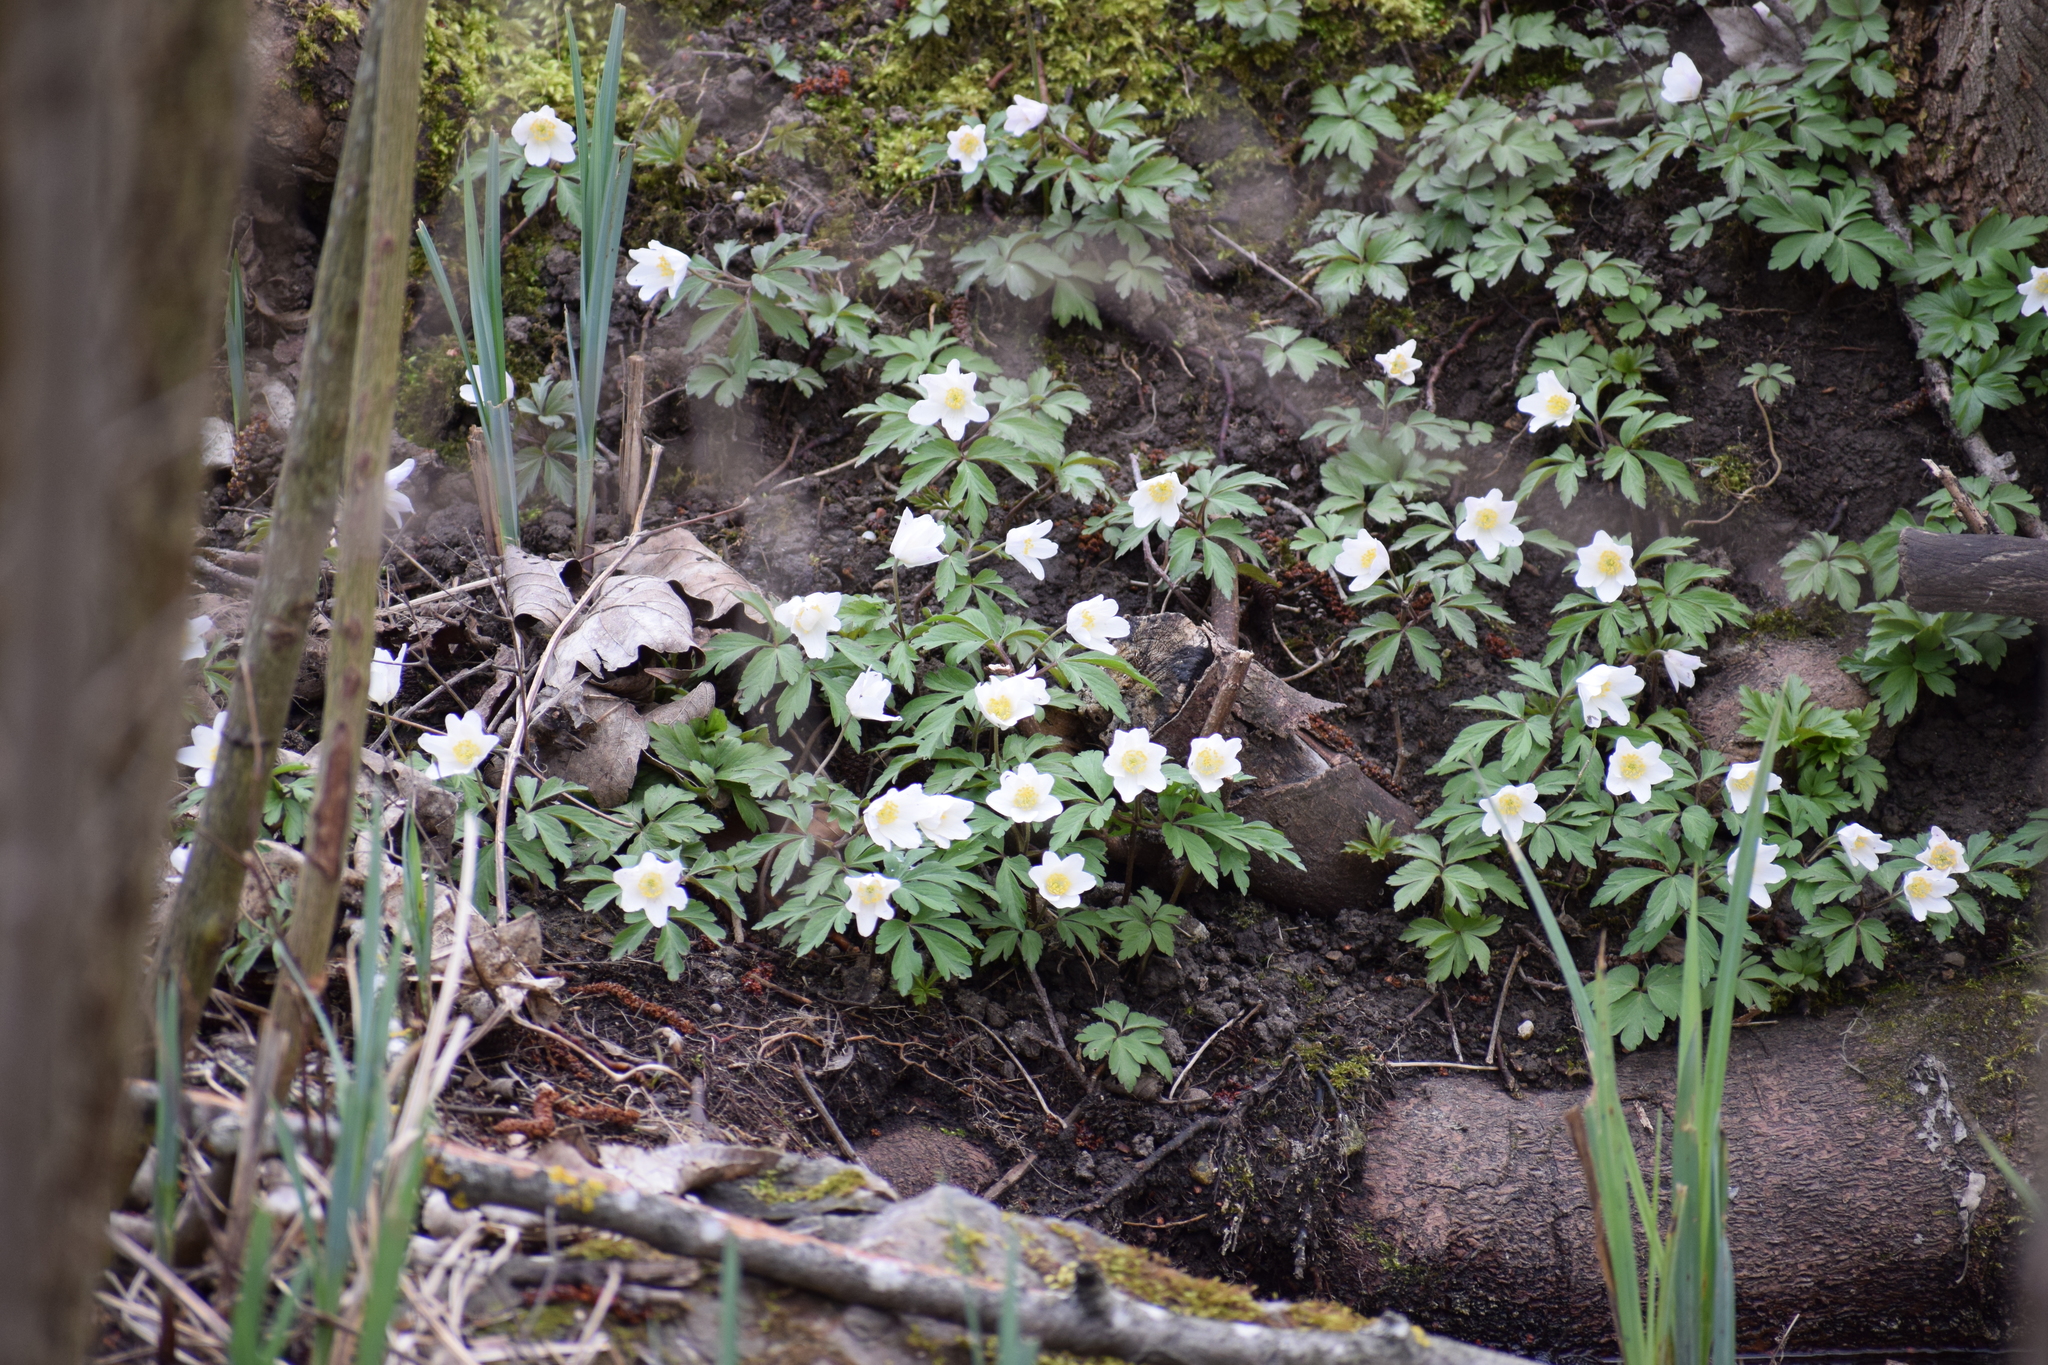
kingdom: Plantae
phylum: Tracheophyta
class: Magnoliopsida
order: Ranunculales
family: Ranunculaceae
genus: Anemone
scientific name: Anemone nemorosa
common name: Wood anemone
